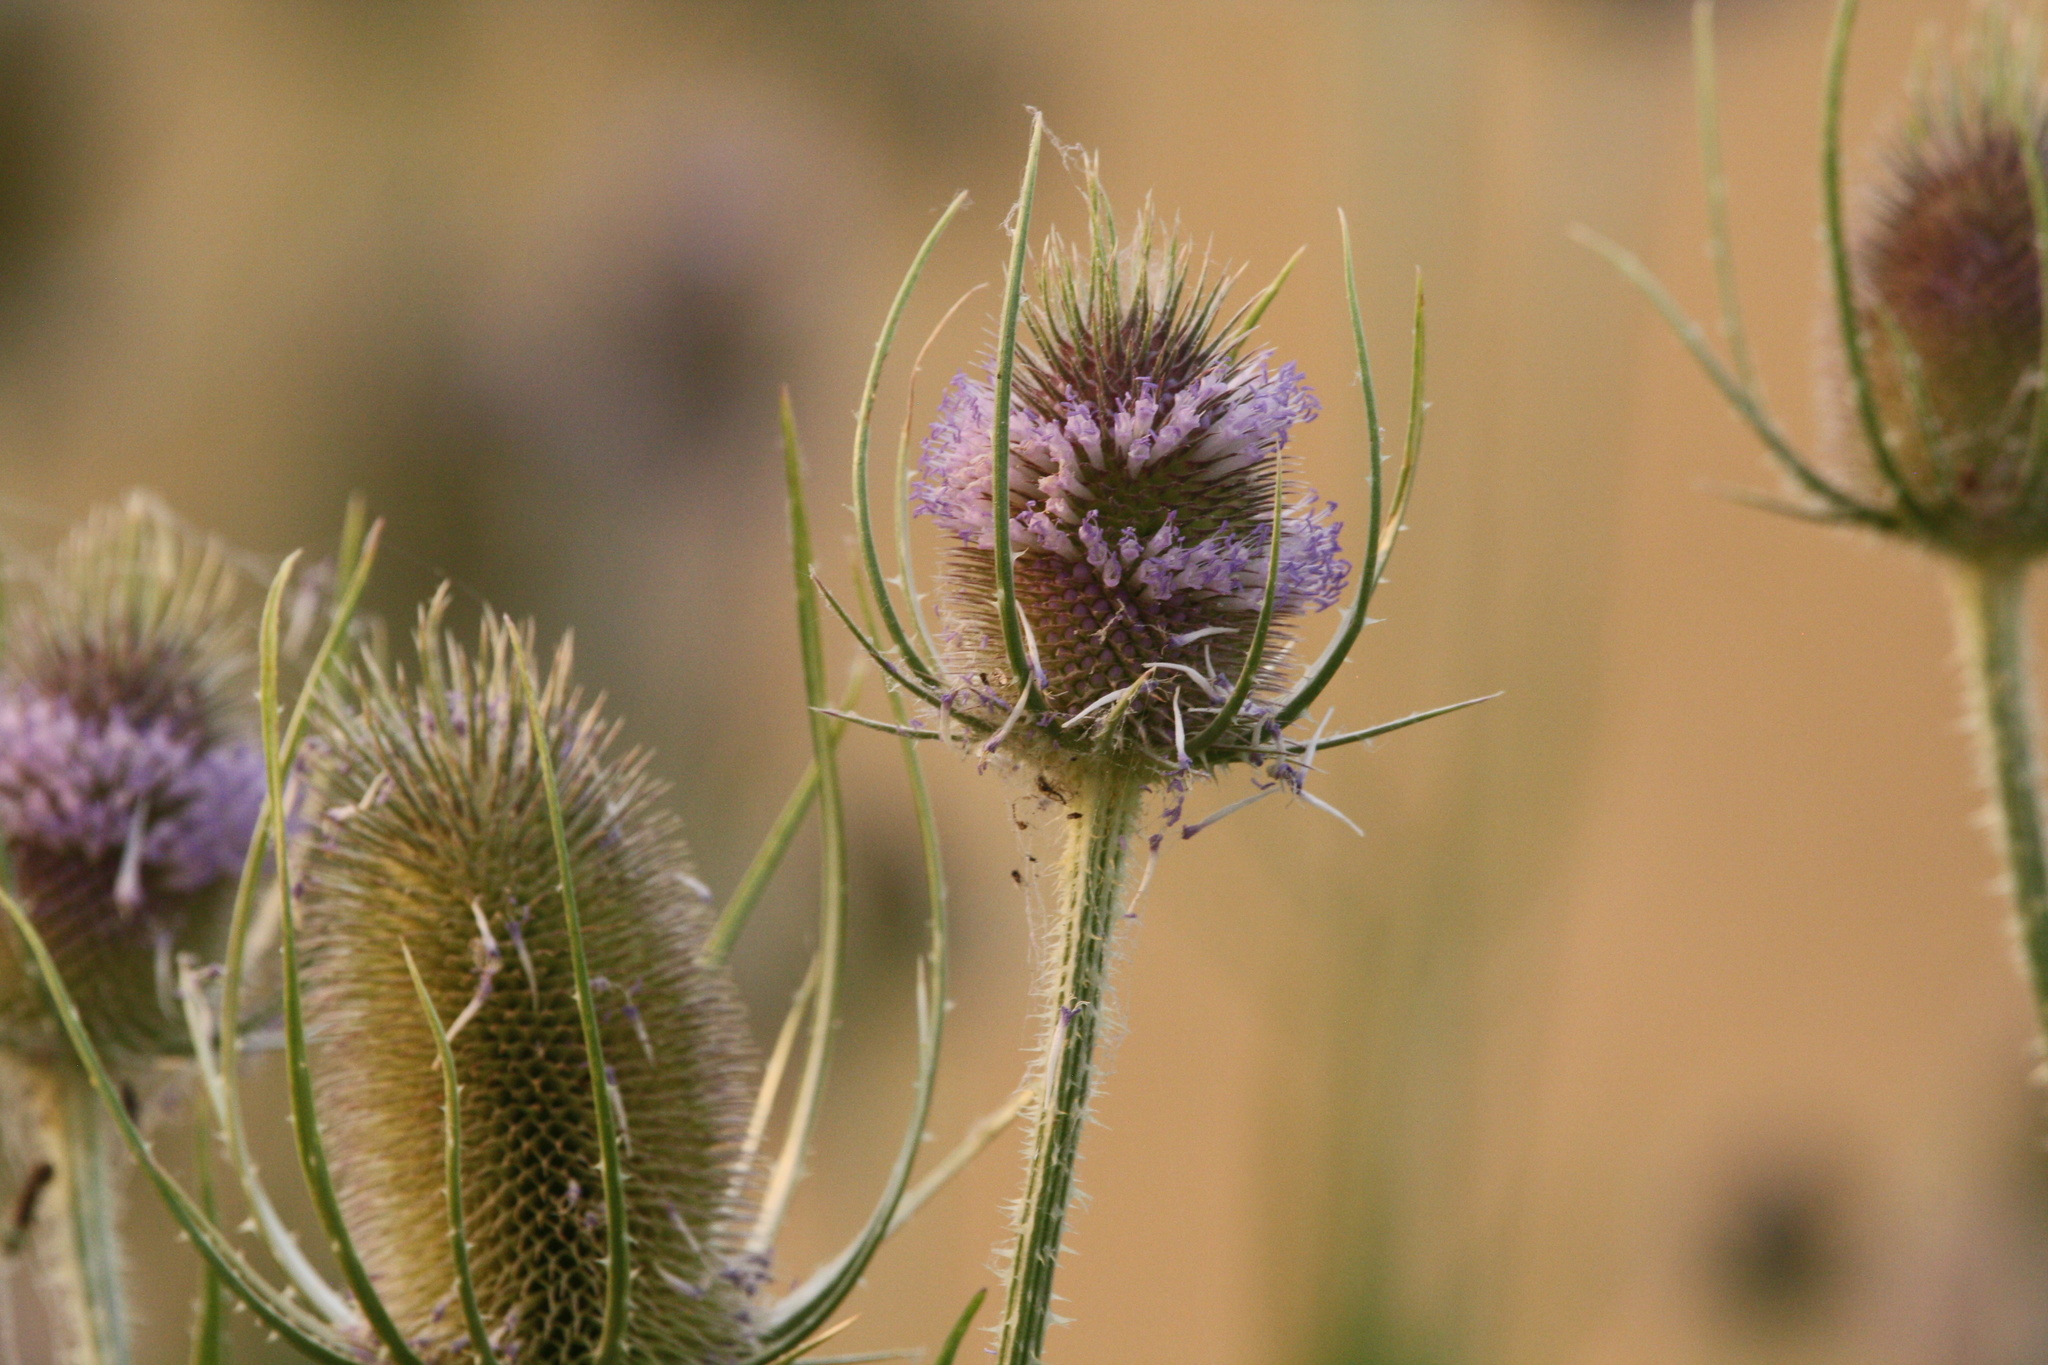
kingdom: Plantae
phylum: Tracheophyta
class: Magnoliopsida
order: Dipsacales
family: Caprifoliaceae
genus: Dipsacus
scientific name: Dipsacus fullonum
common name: Teasel
